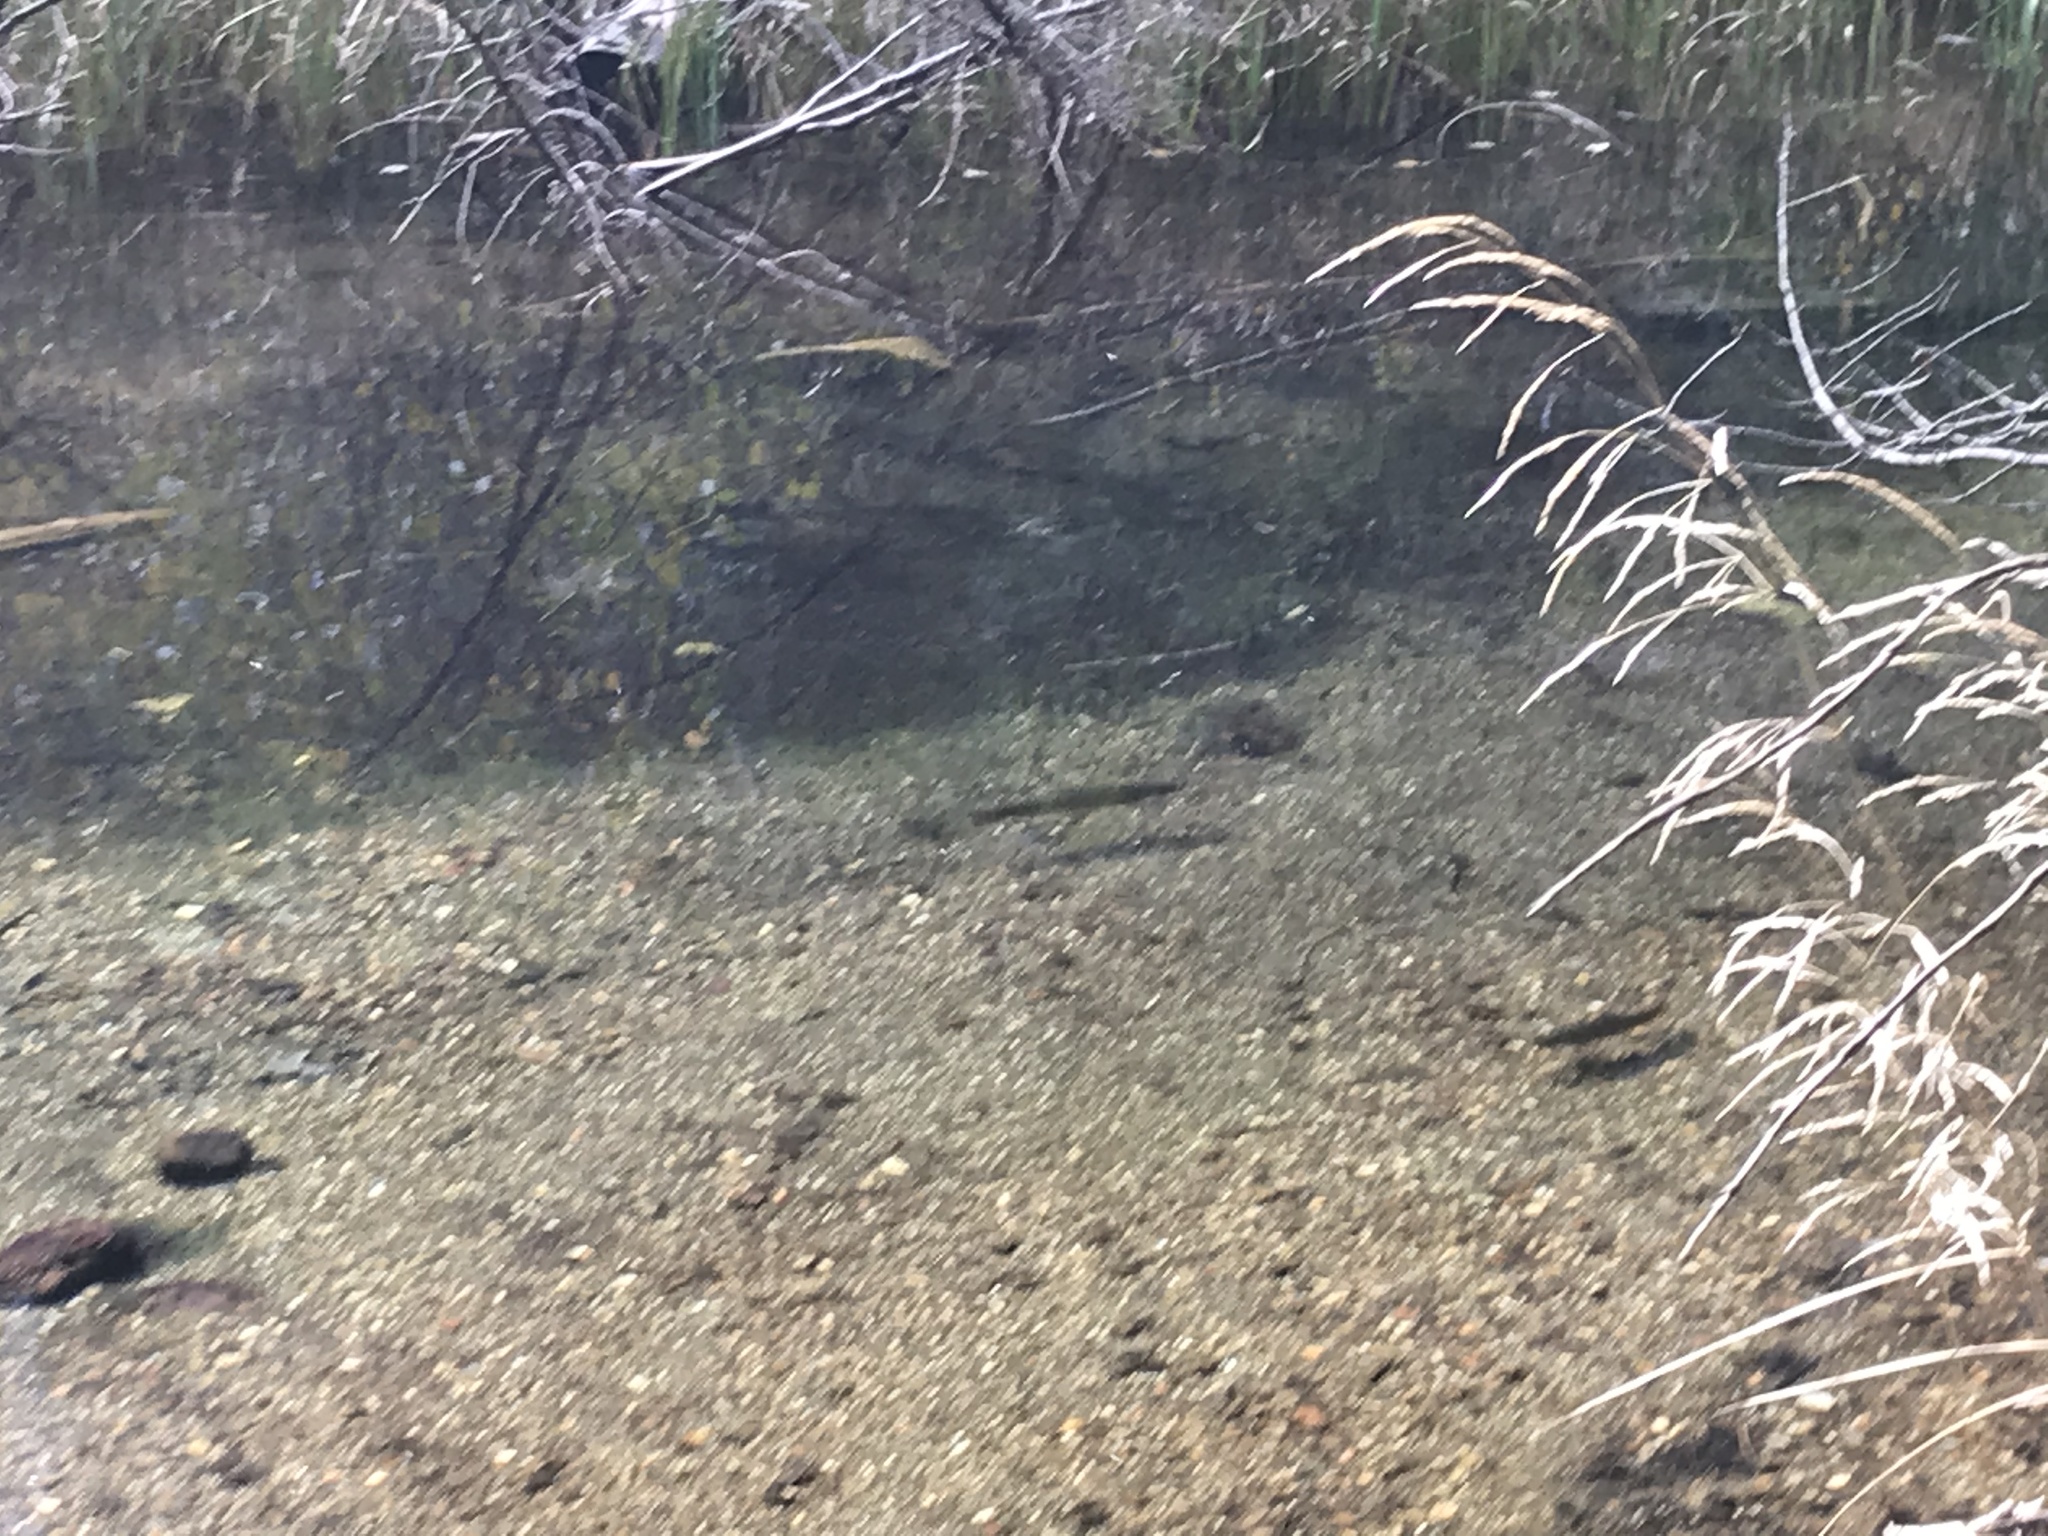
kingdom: Animalia
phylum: Chordata
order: Salmoniformes
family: Salmonidae
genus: Salmo
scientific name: Salmo trutta
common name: Brown trout
